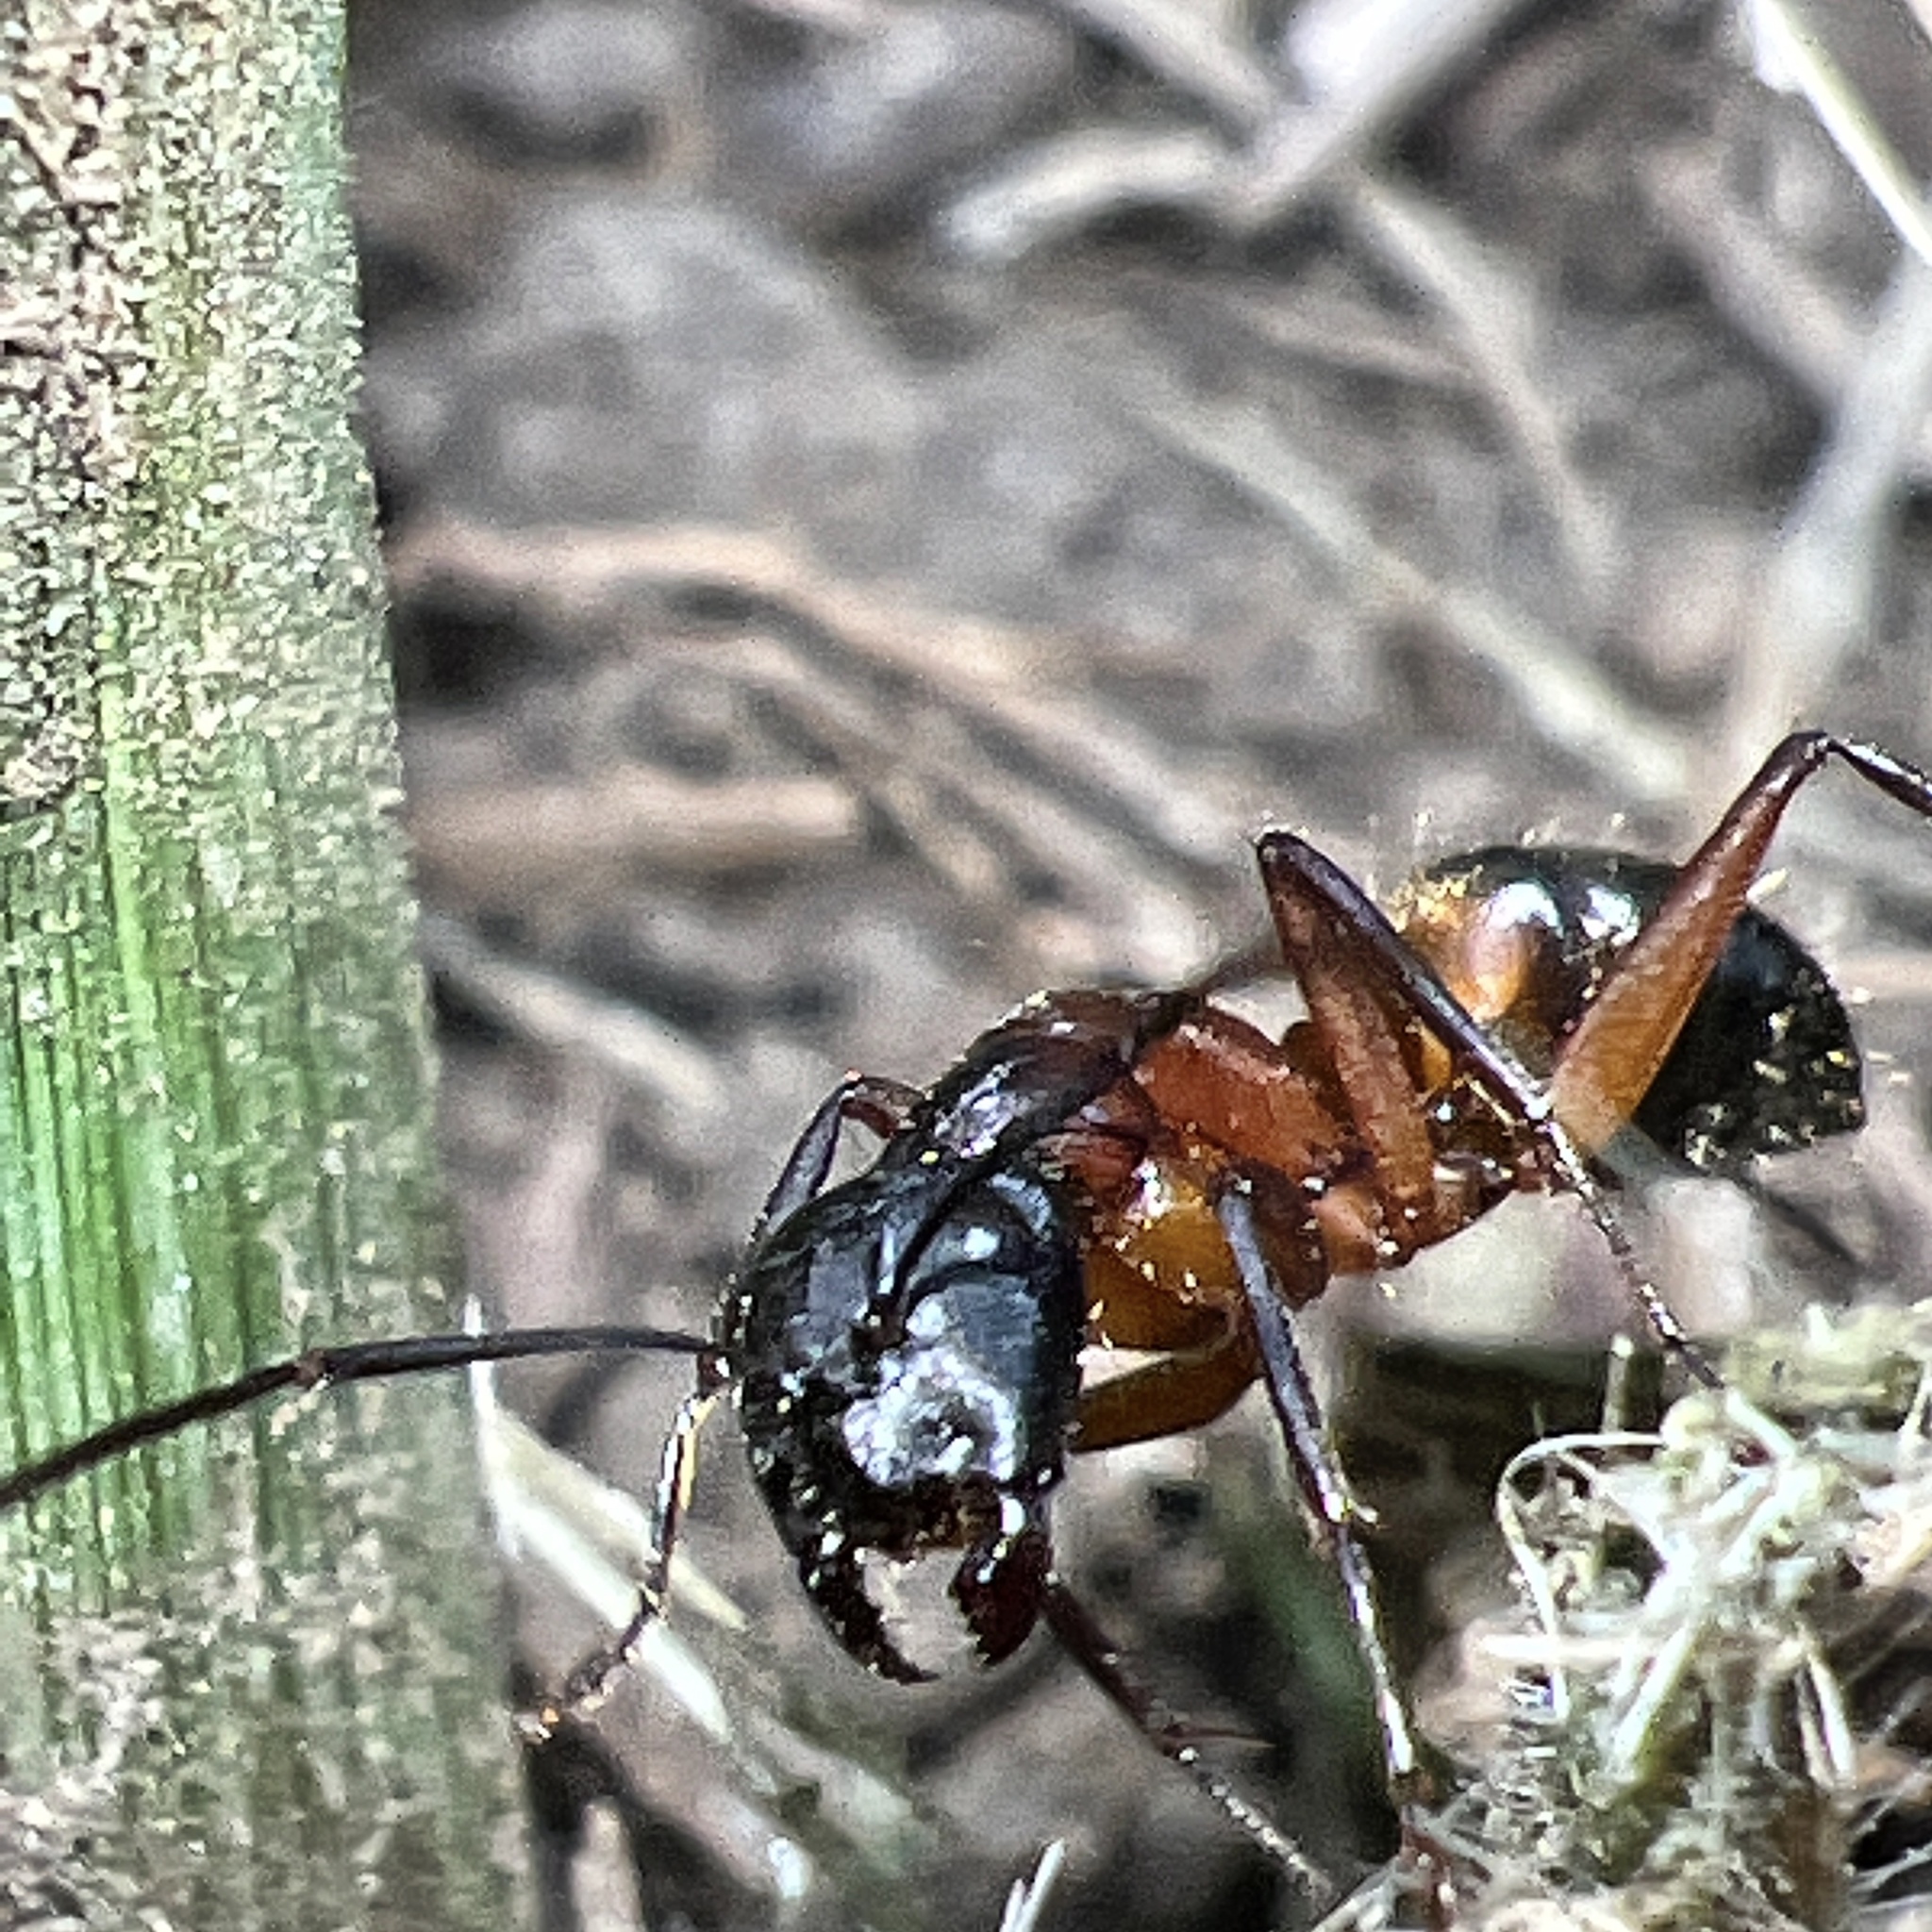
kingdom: Animalia
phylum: Arthropoda
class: Insecta
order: Hymenoptera
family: Formicidae
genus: Camponotus
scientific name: Camponotus chromaiodes
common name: Red carpenter ant
